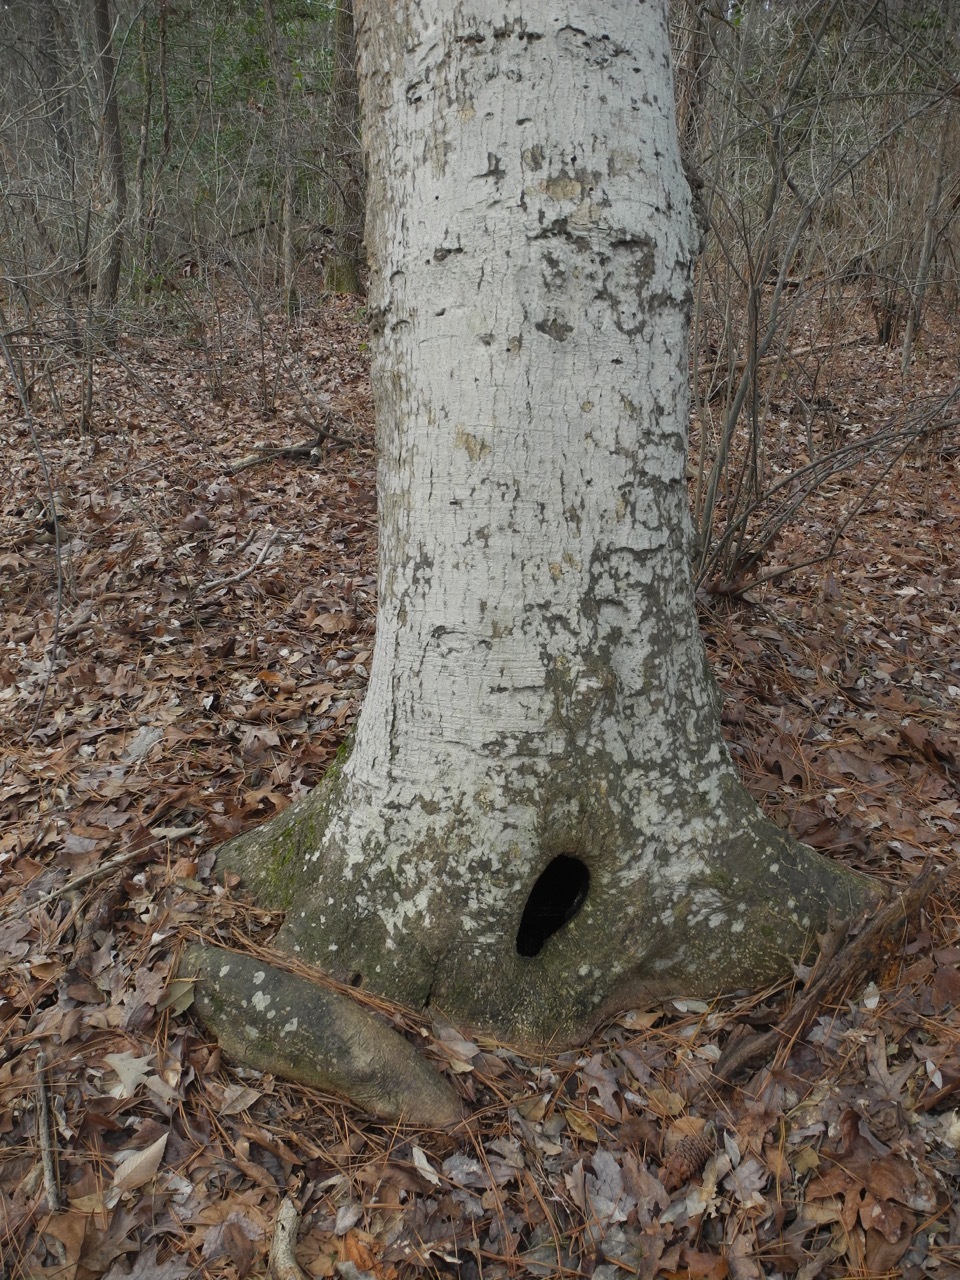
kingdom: Plantae
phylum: Tracheophyta
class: Magnoliopsida
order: Aquifoliales
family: Aquifoliaceae
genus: Ilex
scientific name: Ilex opaca
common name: American holly
